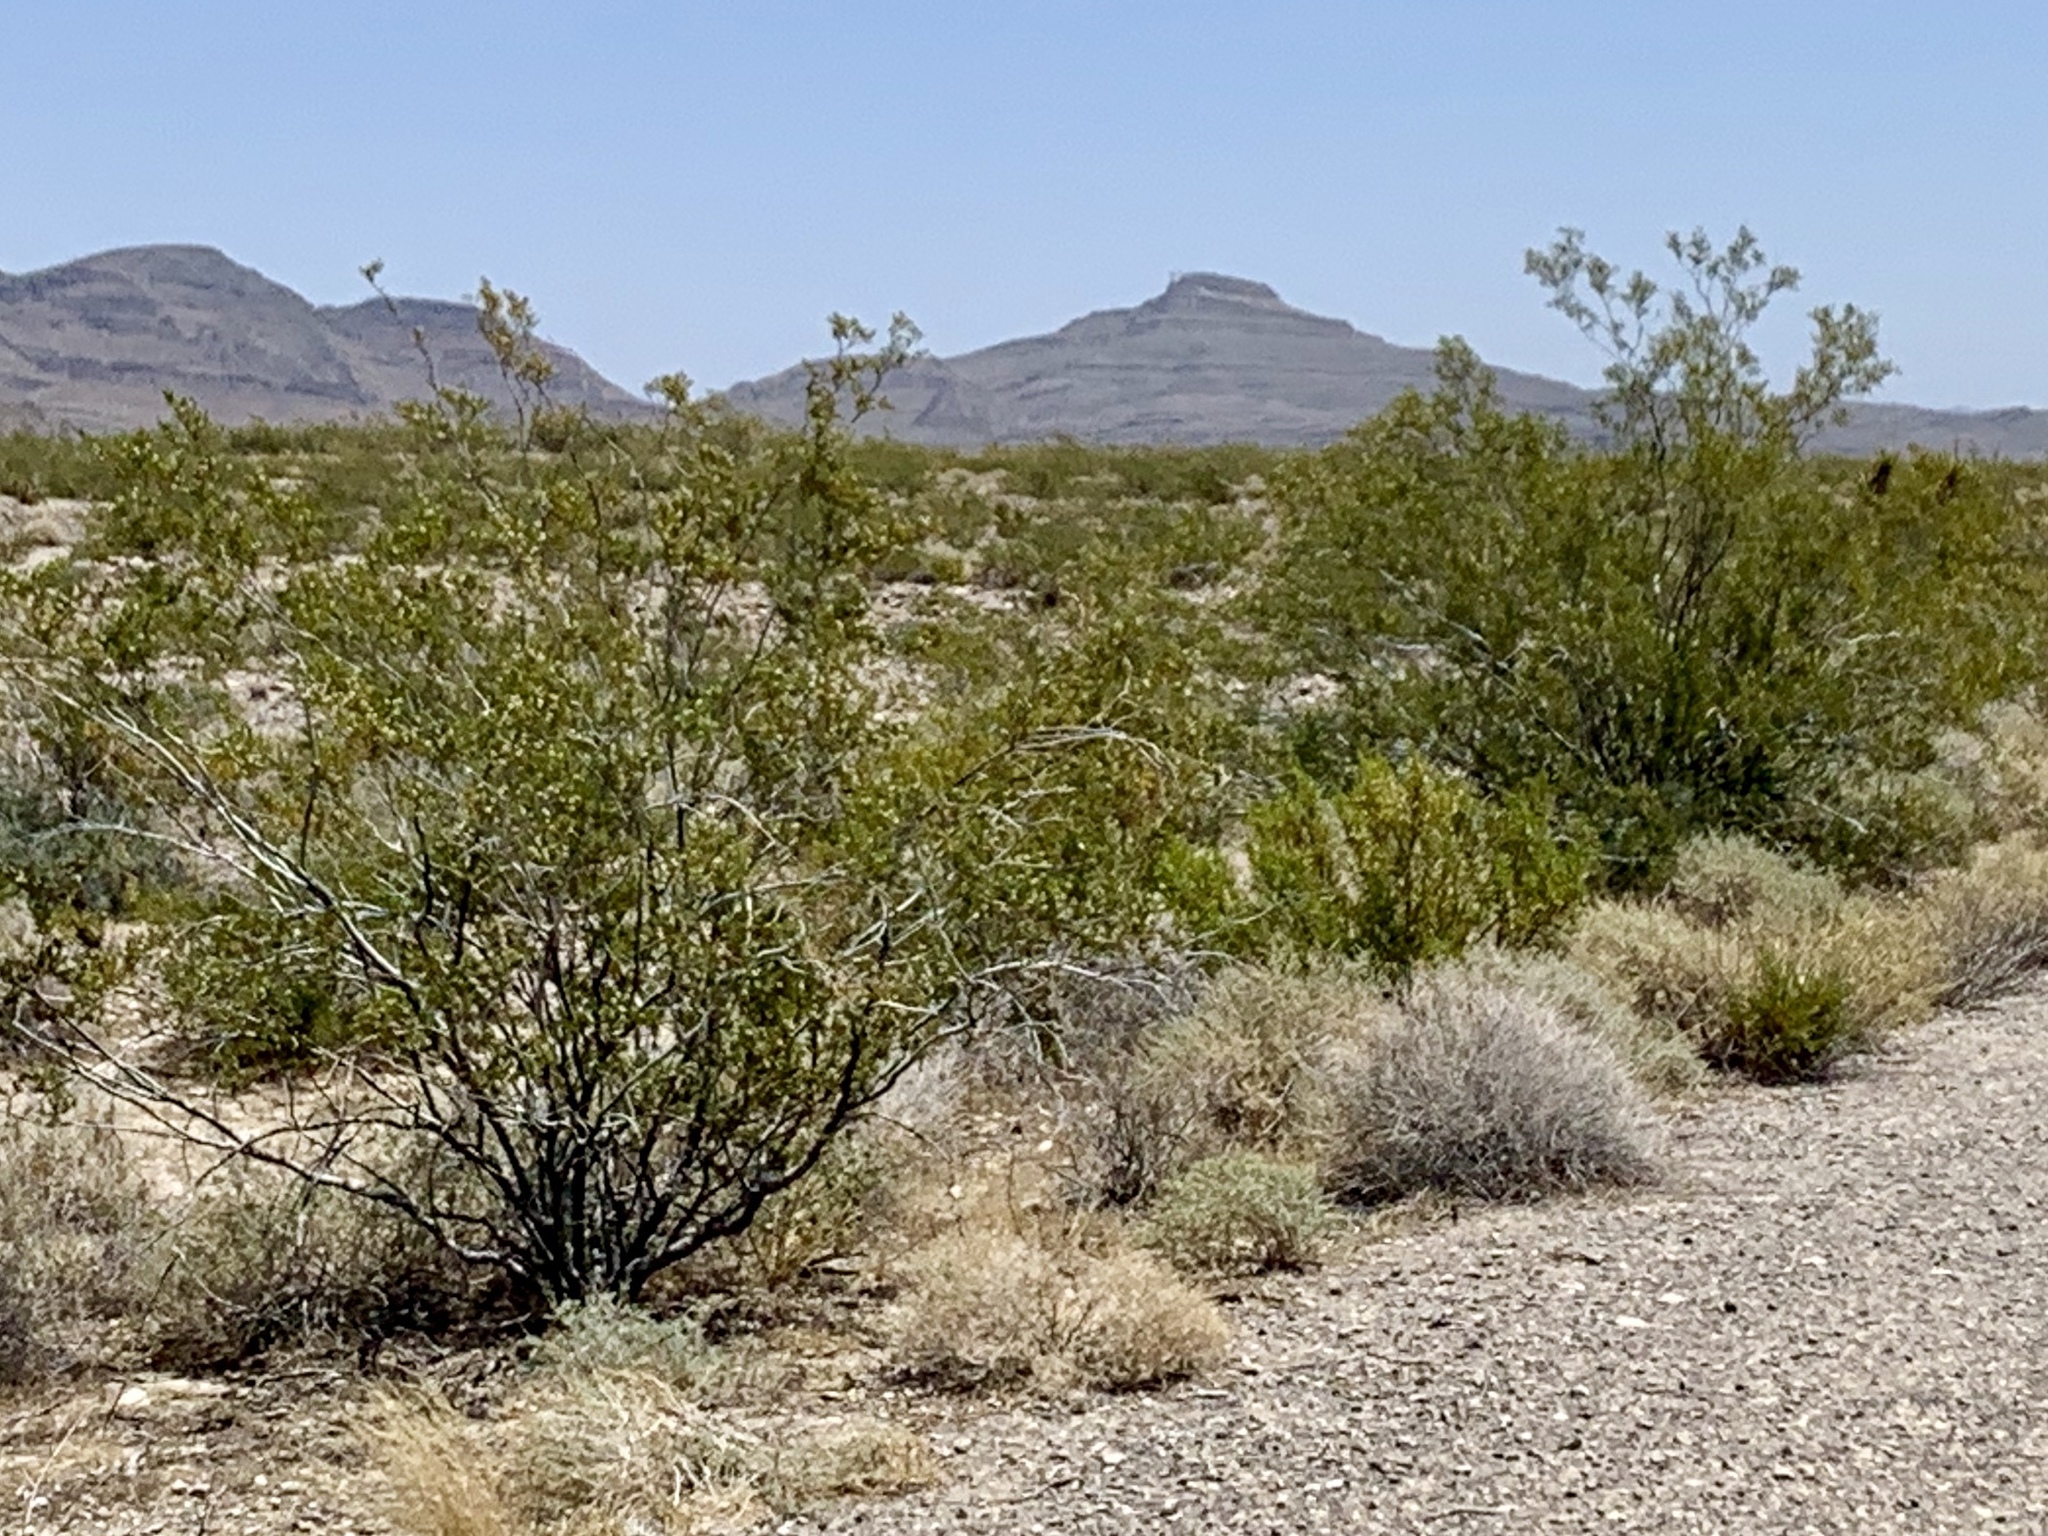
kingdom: Plantae
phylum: Tracheophyta
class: Magnoliopsida
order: Zygophyllales
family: Zygophyllaceae
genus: Larrea
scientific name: Larrea tridentata
